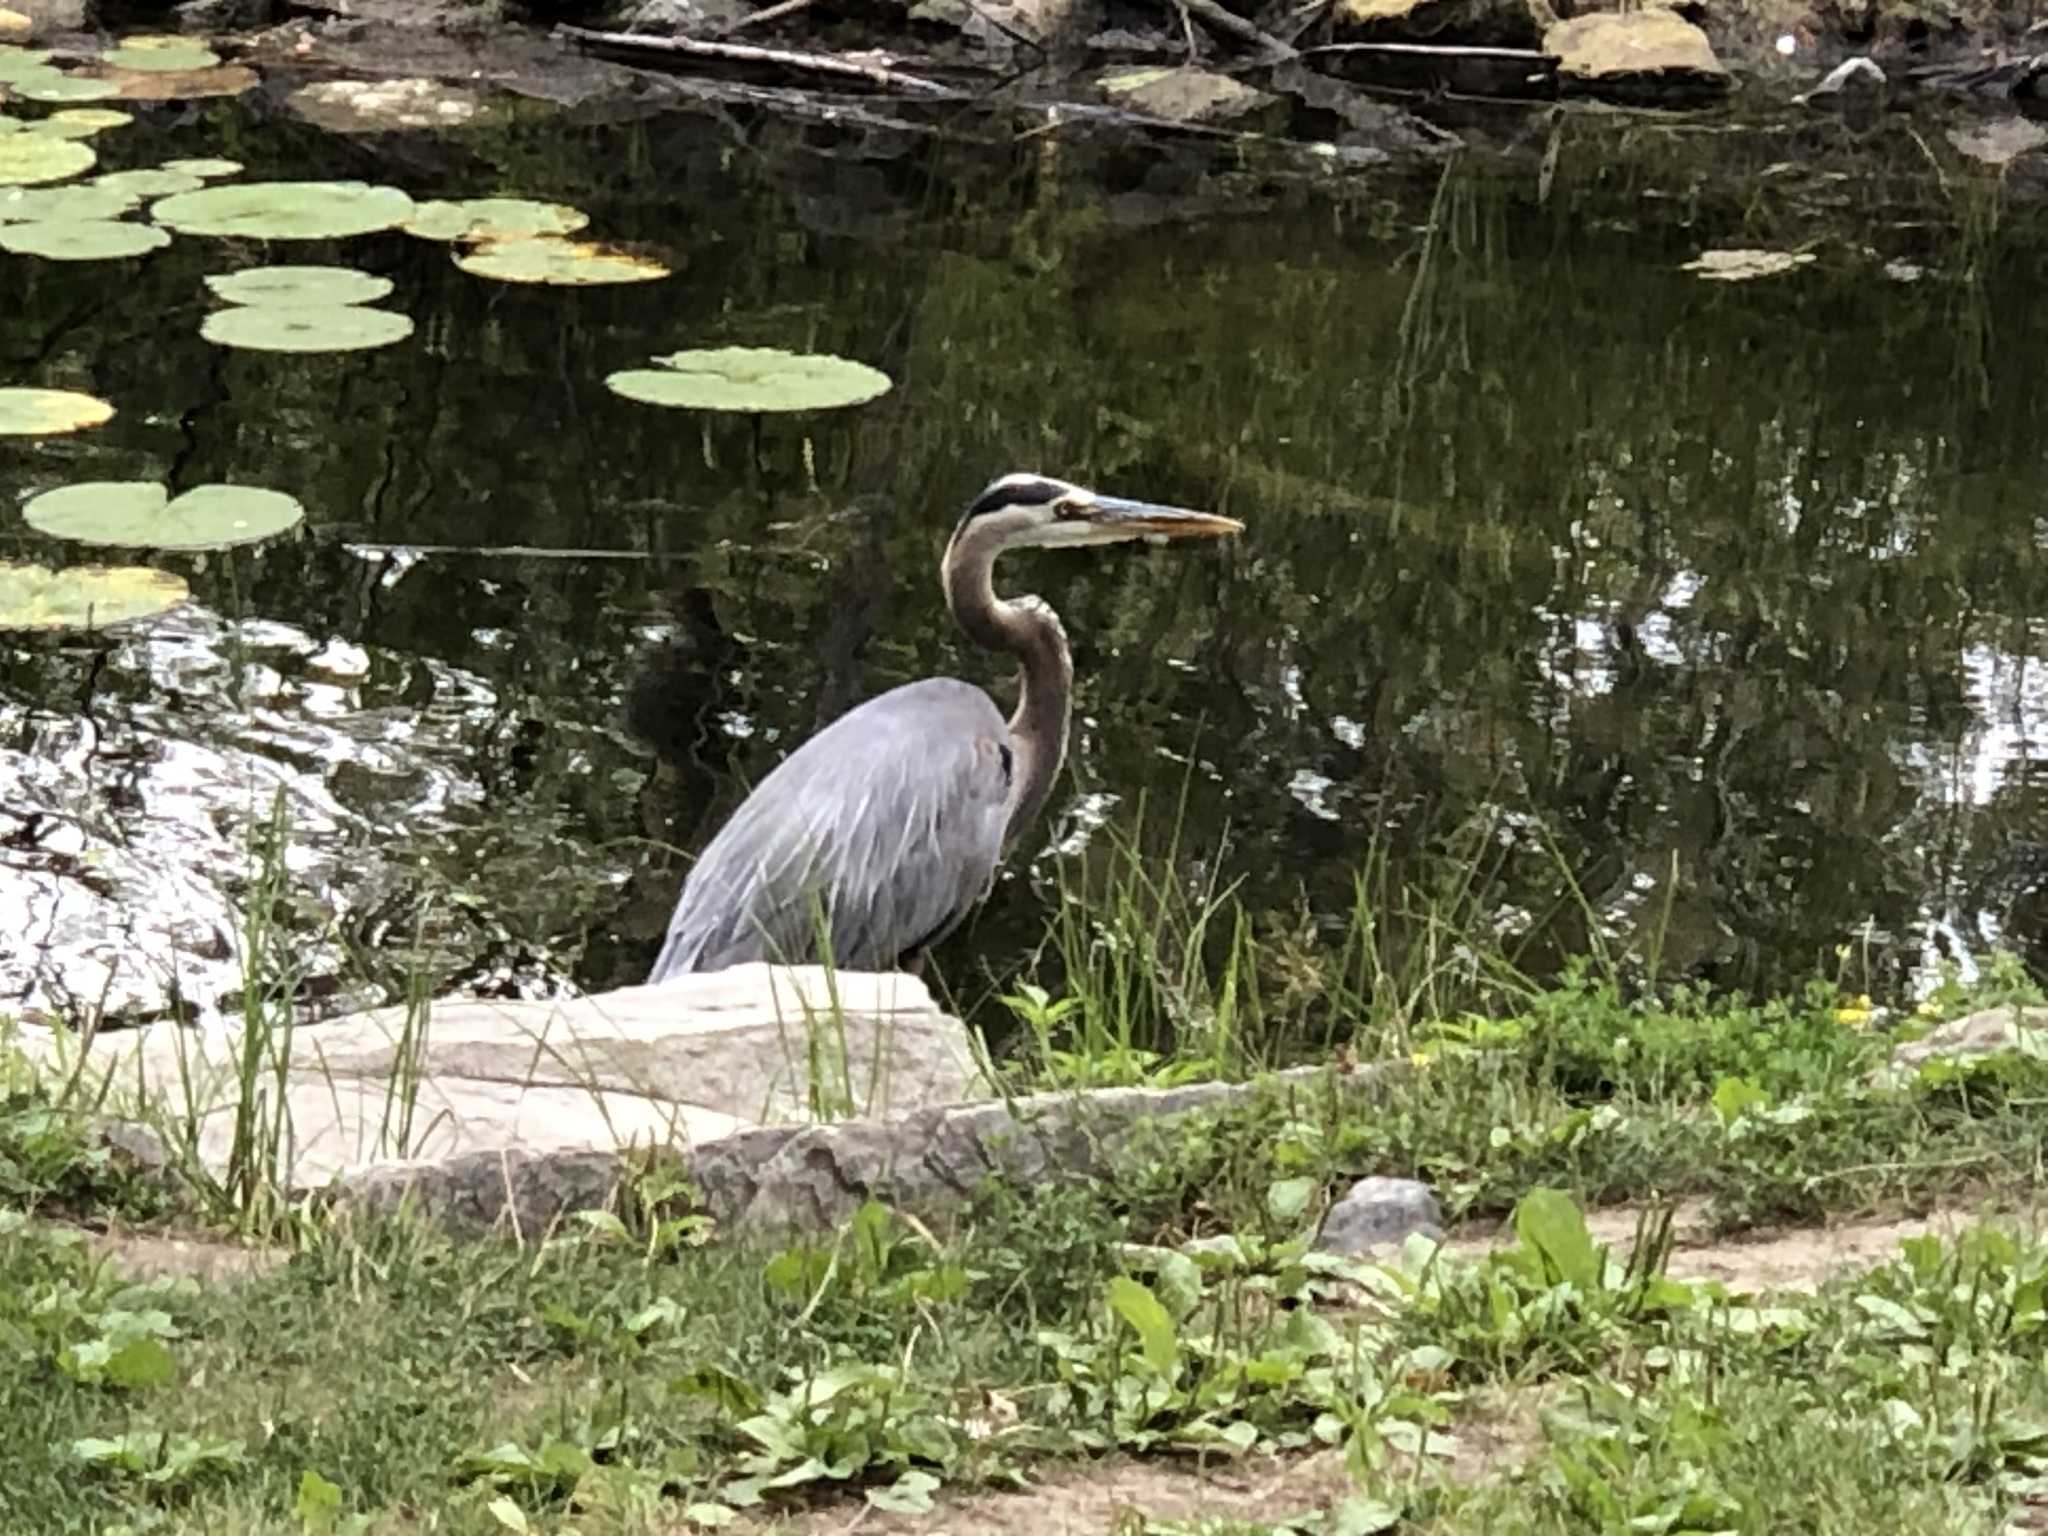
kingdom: Animalia
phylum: Chordata
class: Aves
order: Pelecaniformes
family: Ardeidae
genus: Ardea
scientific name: Ardea herodias
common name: Great blue heron
